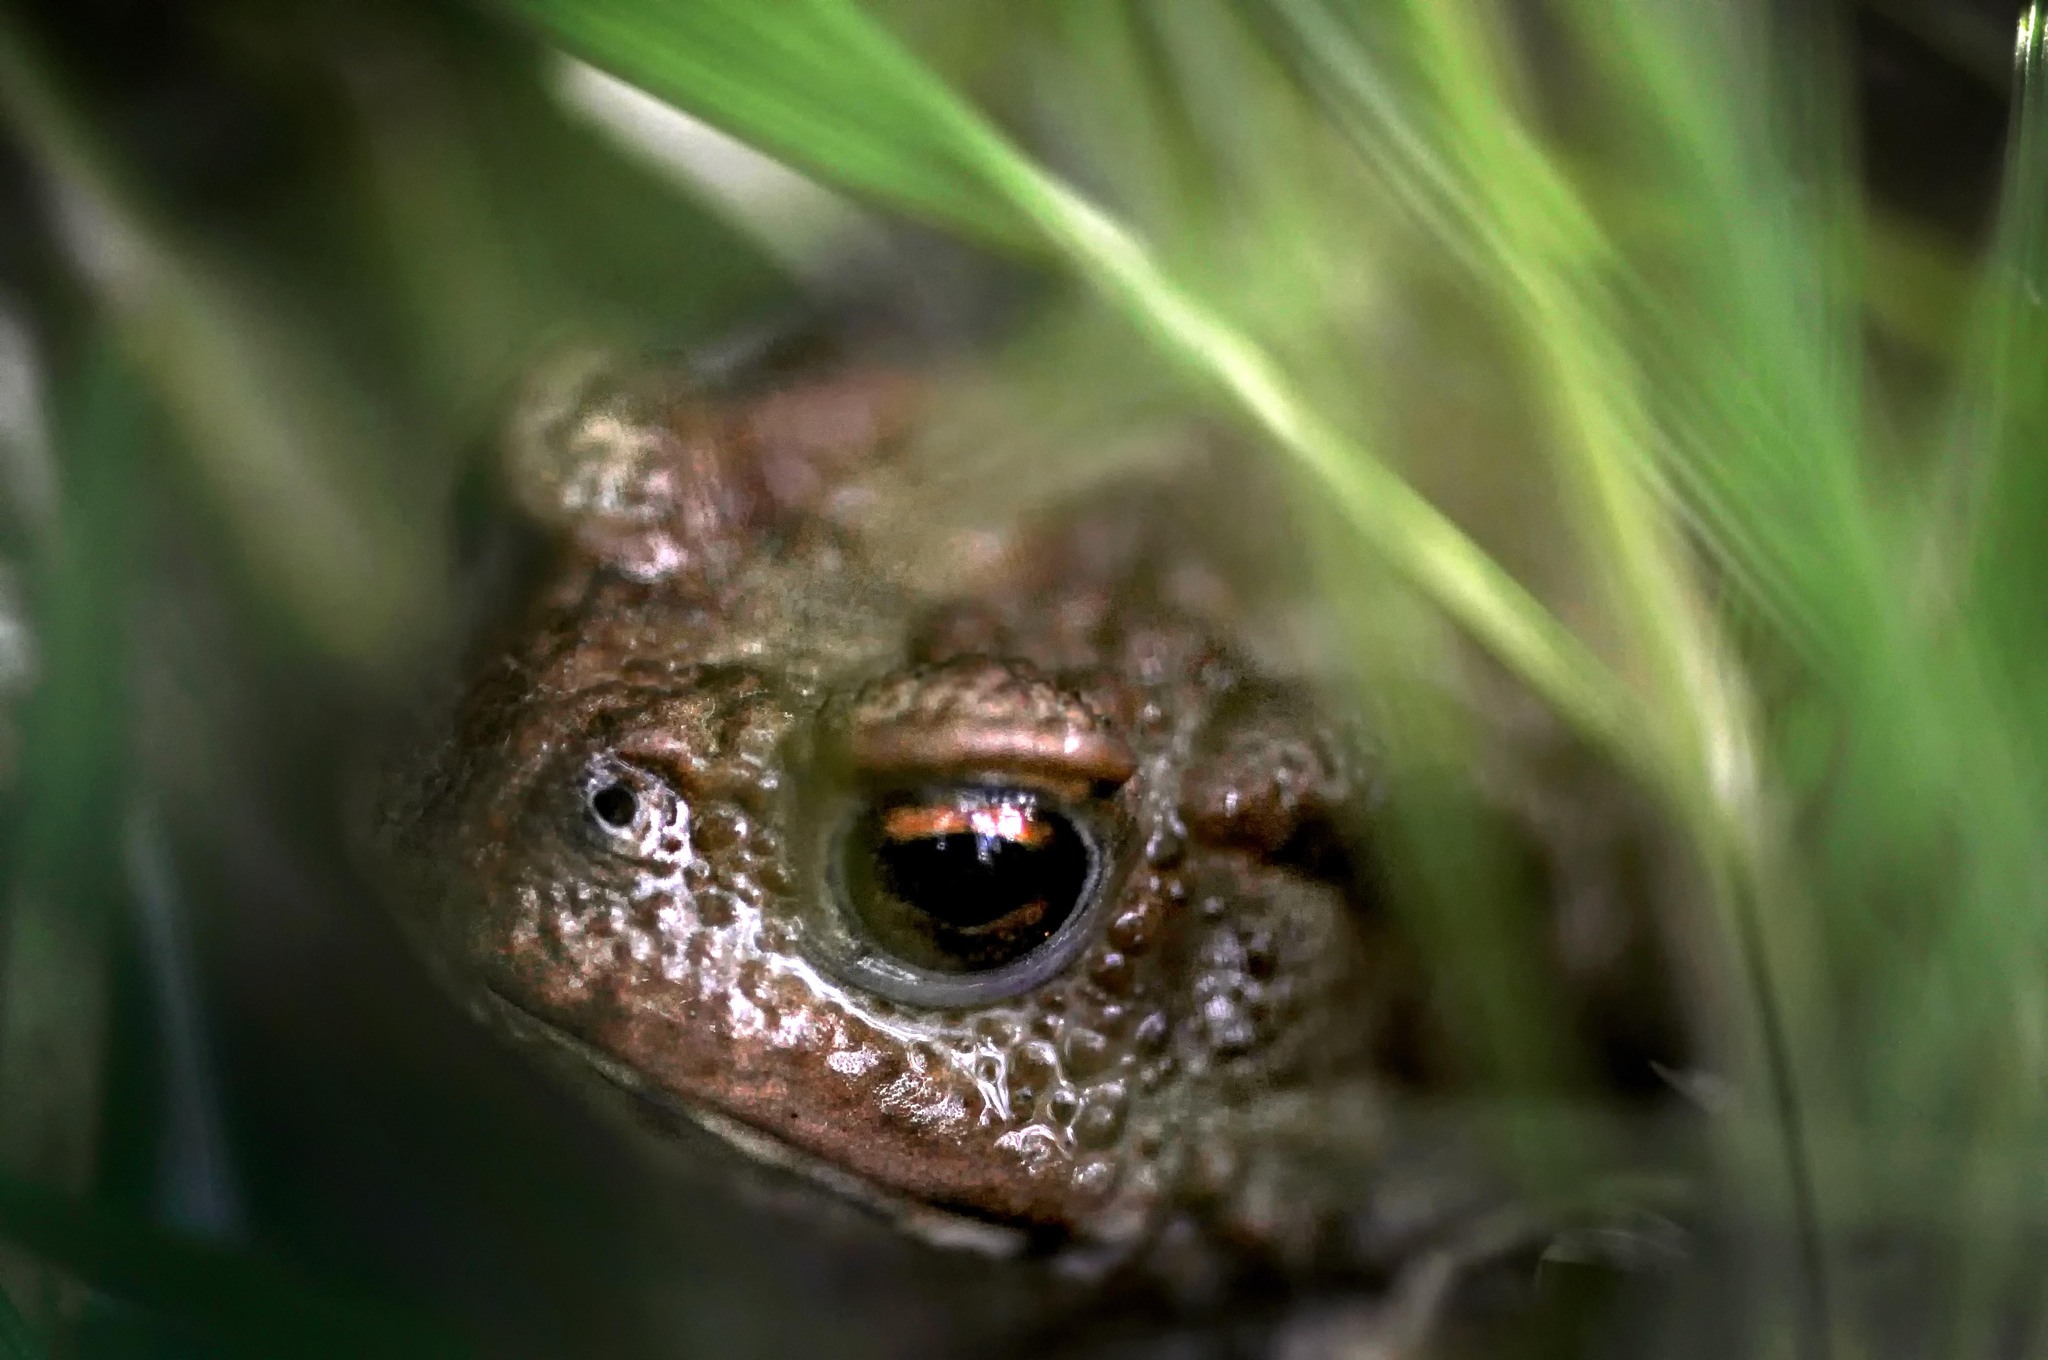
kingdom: Animalia
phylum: Chordata
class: Amphibia
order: Anura
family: Bufonidae
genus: Bufo
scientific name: Bufo bufo
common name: Common toad
